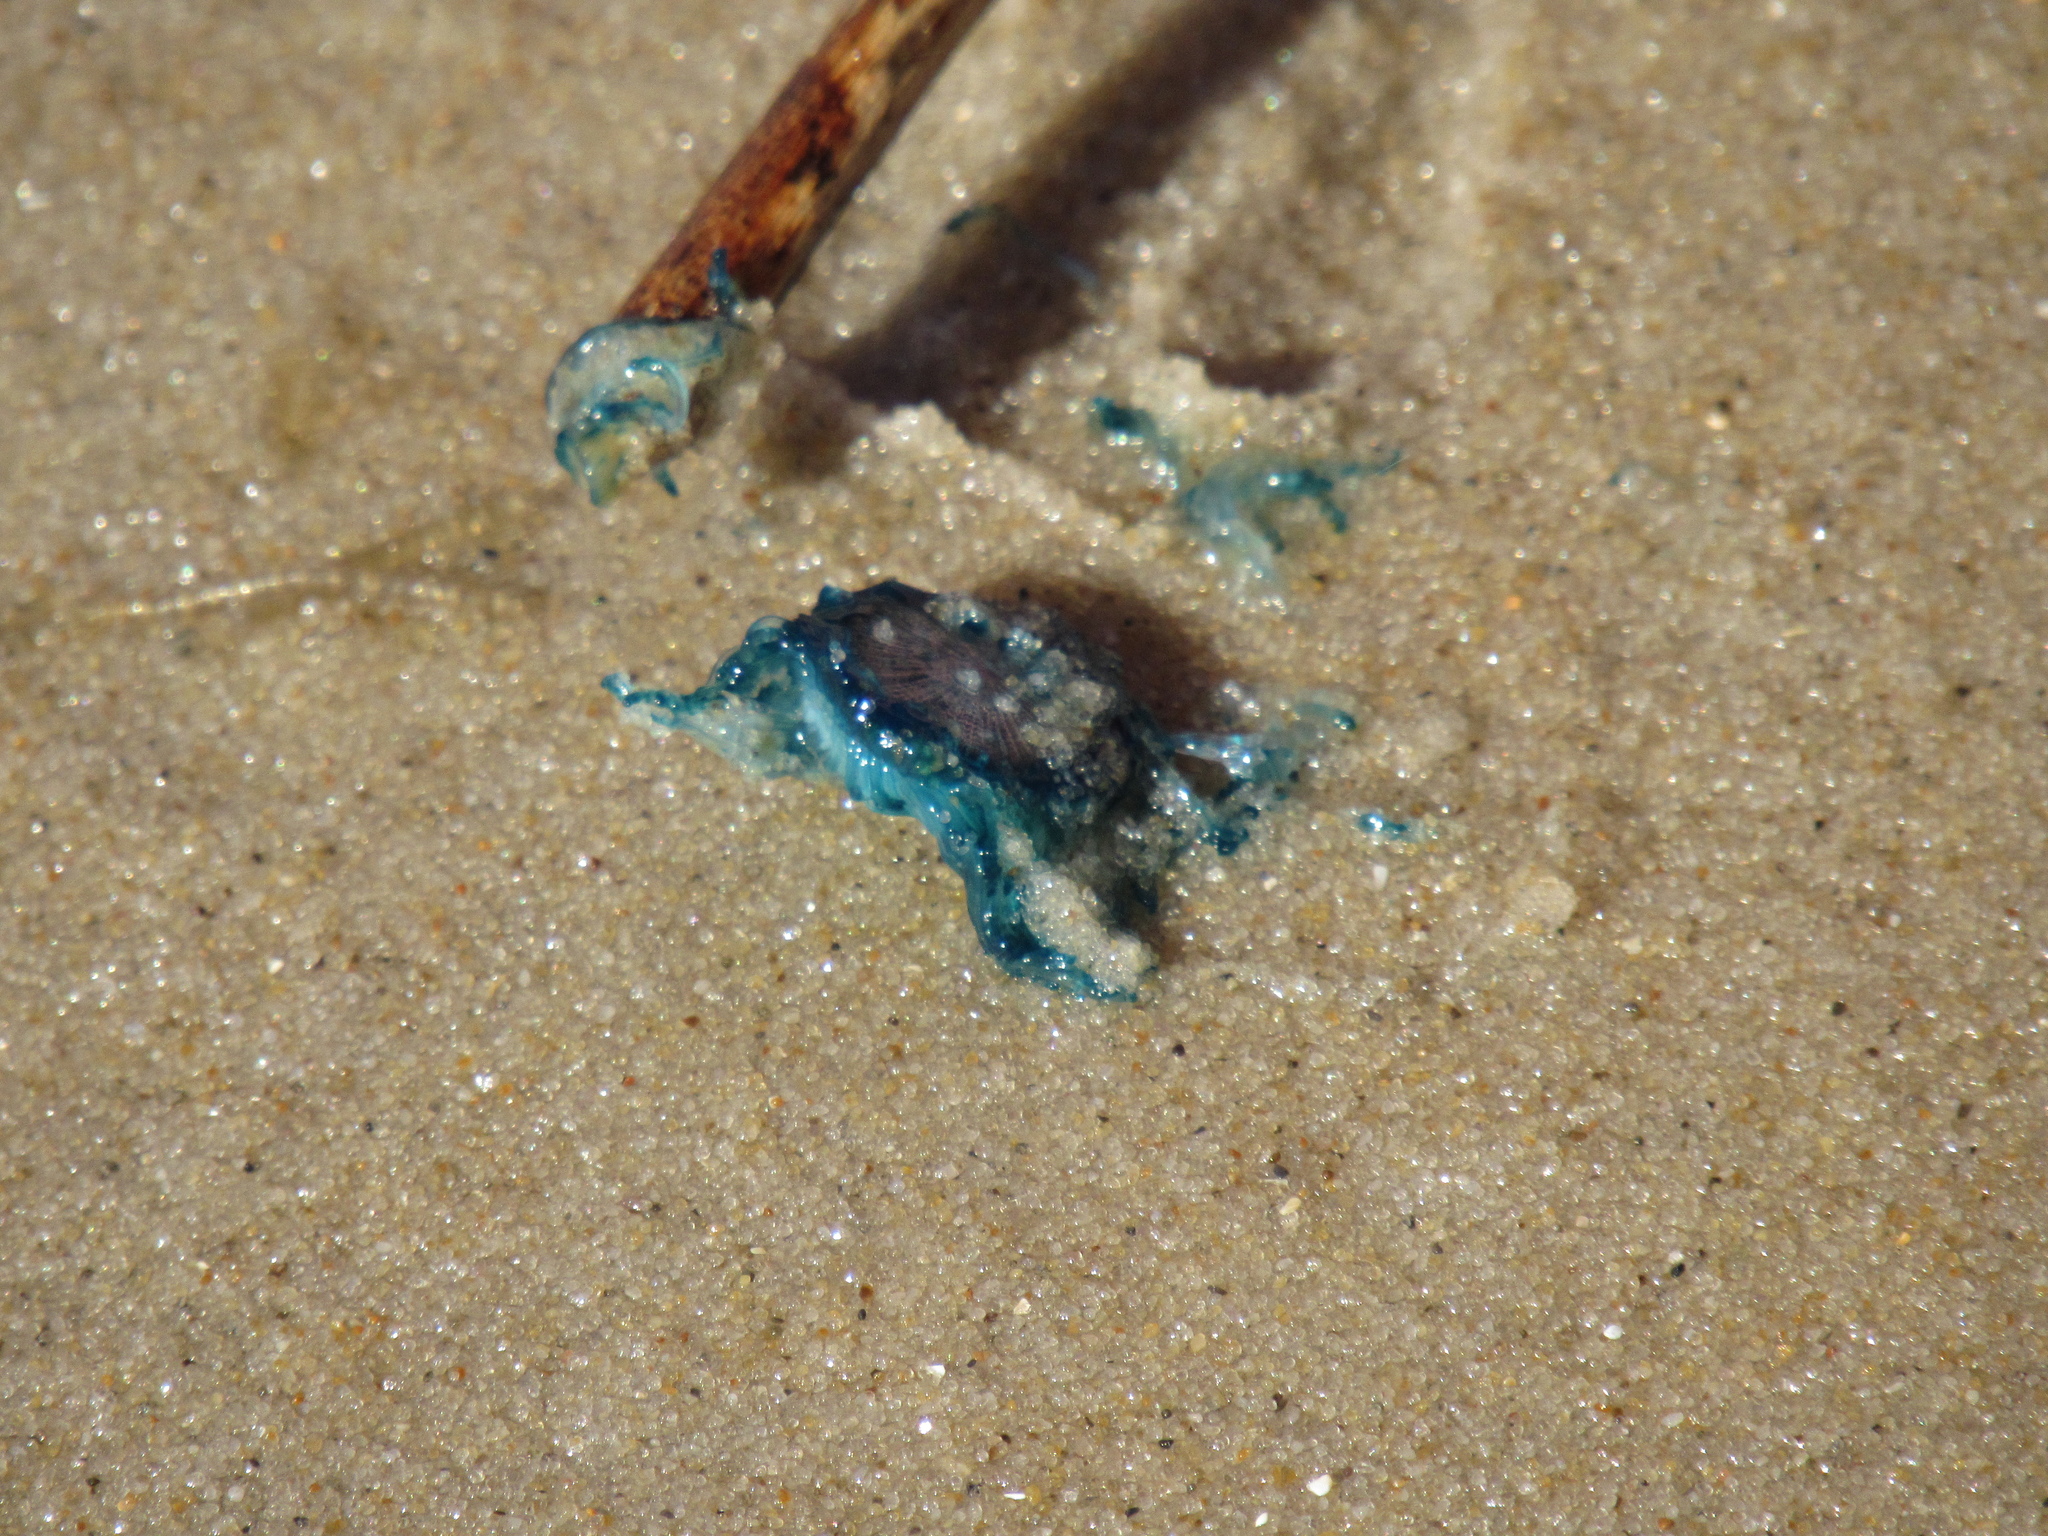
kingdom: Animalia
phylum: Cnidaria
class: Hydrozoa
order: Anthoathecata
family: Porpitidae
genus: Porpita
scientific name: Porpita porpita
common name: Blue button
